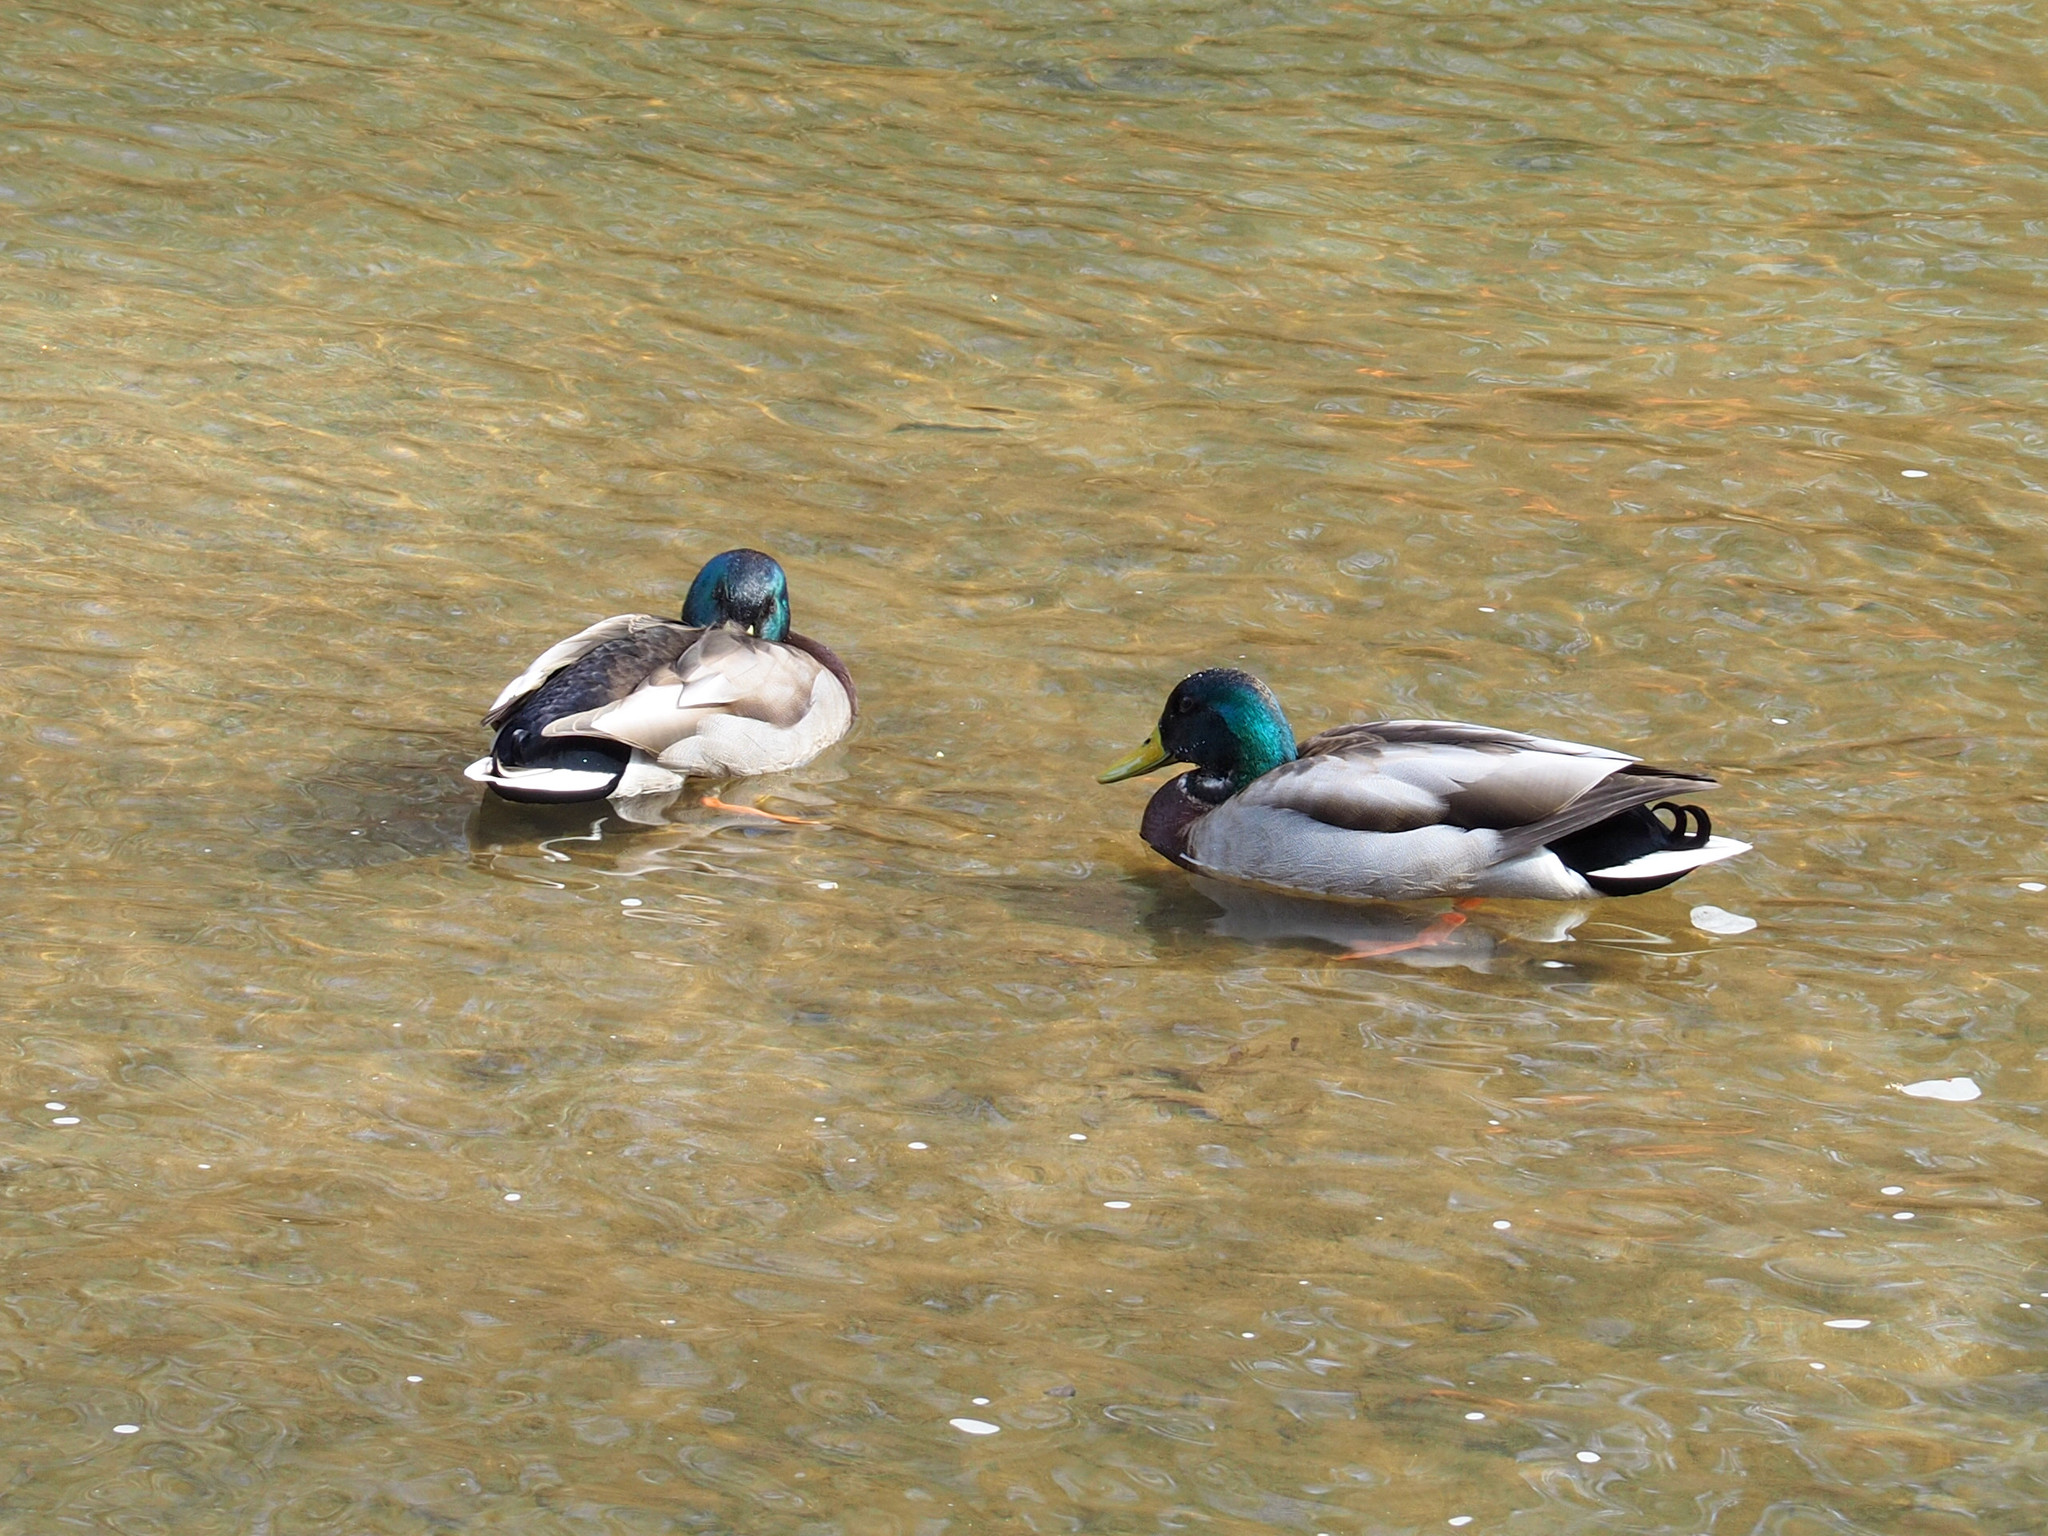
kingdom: Animalia
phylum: Chordata
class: Aves
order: Anseriformes
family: Anatidae
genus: Anas
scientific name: Anas platyrhynchos
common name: Mallard
